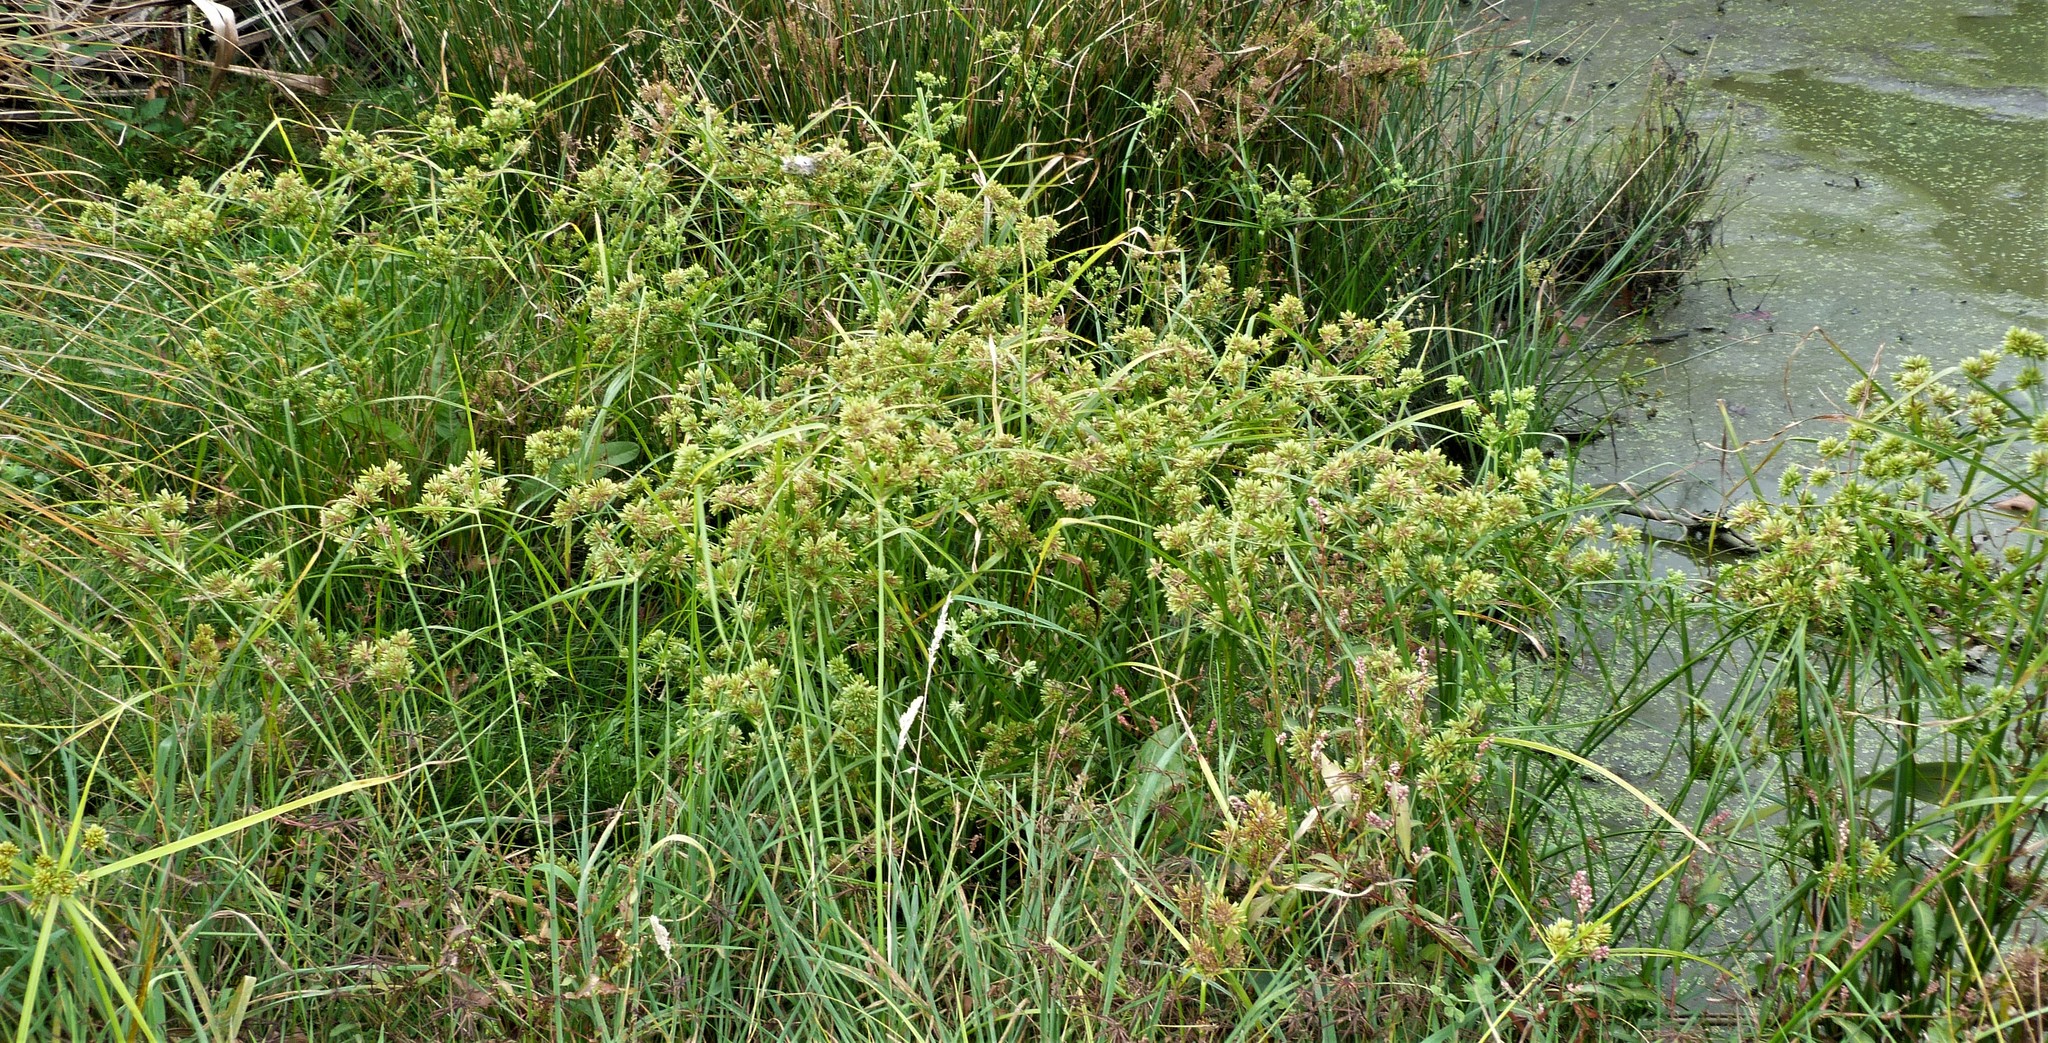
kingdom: Plantae
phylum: Tracheophyta
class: Liliopsida
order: Poales
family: Cyperaceae
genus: Cyperus
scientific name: Cyperus eragrostis
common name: Tall flatsedge
